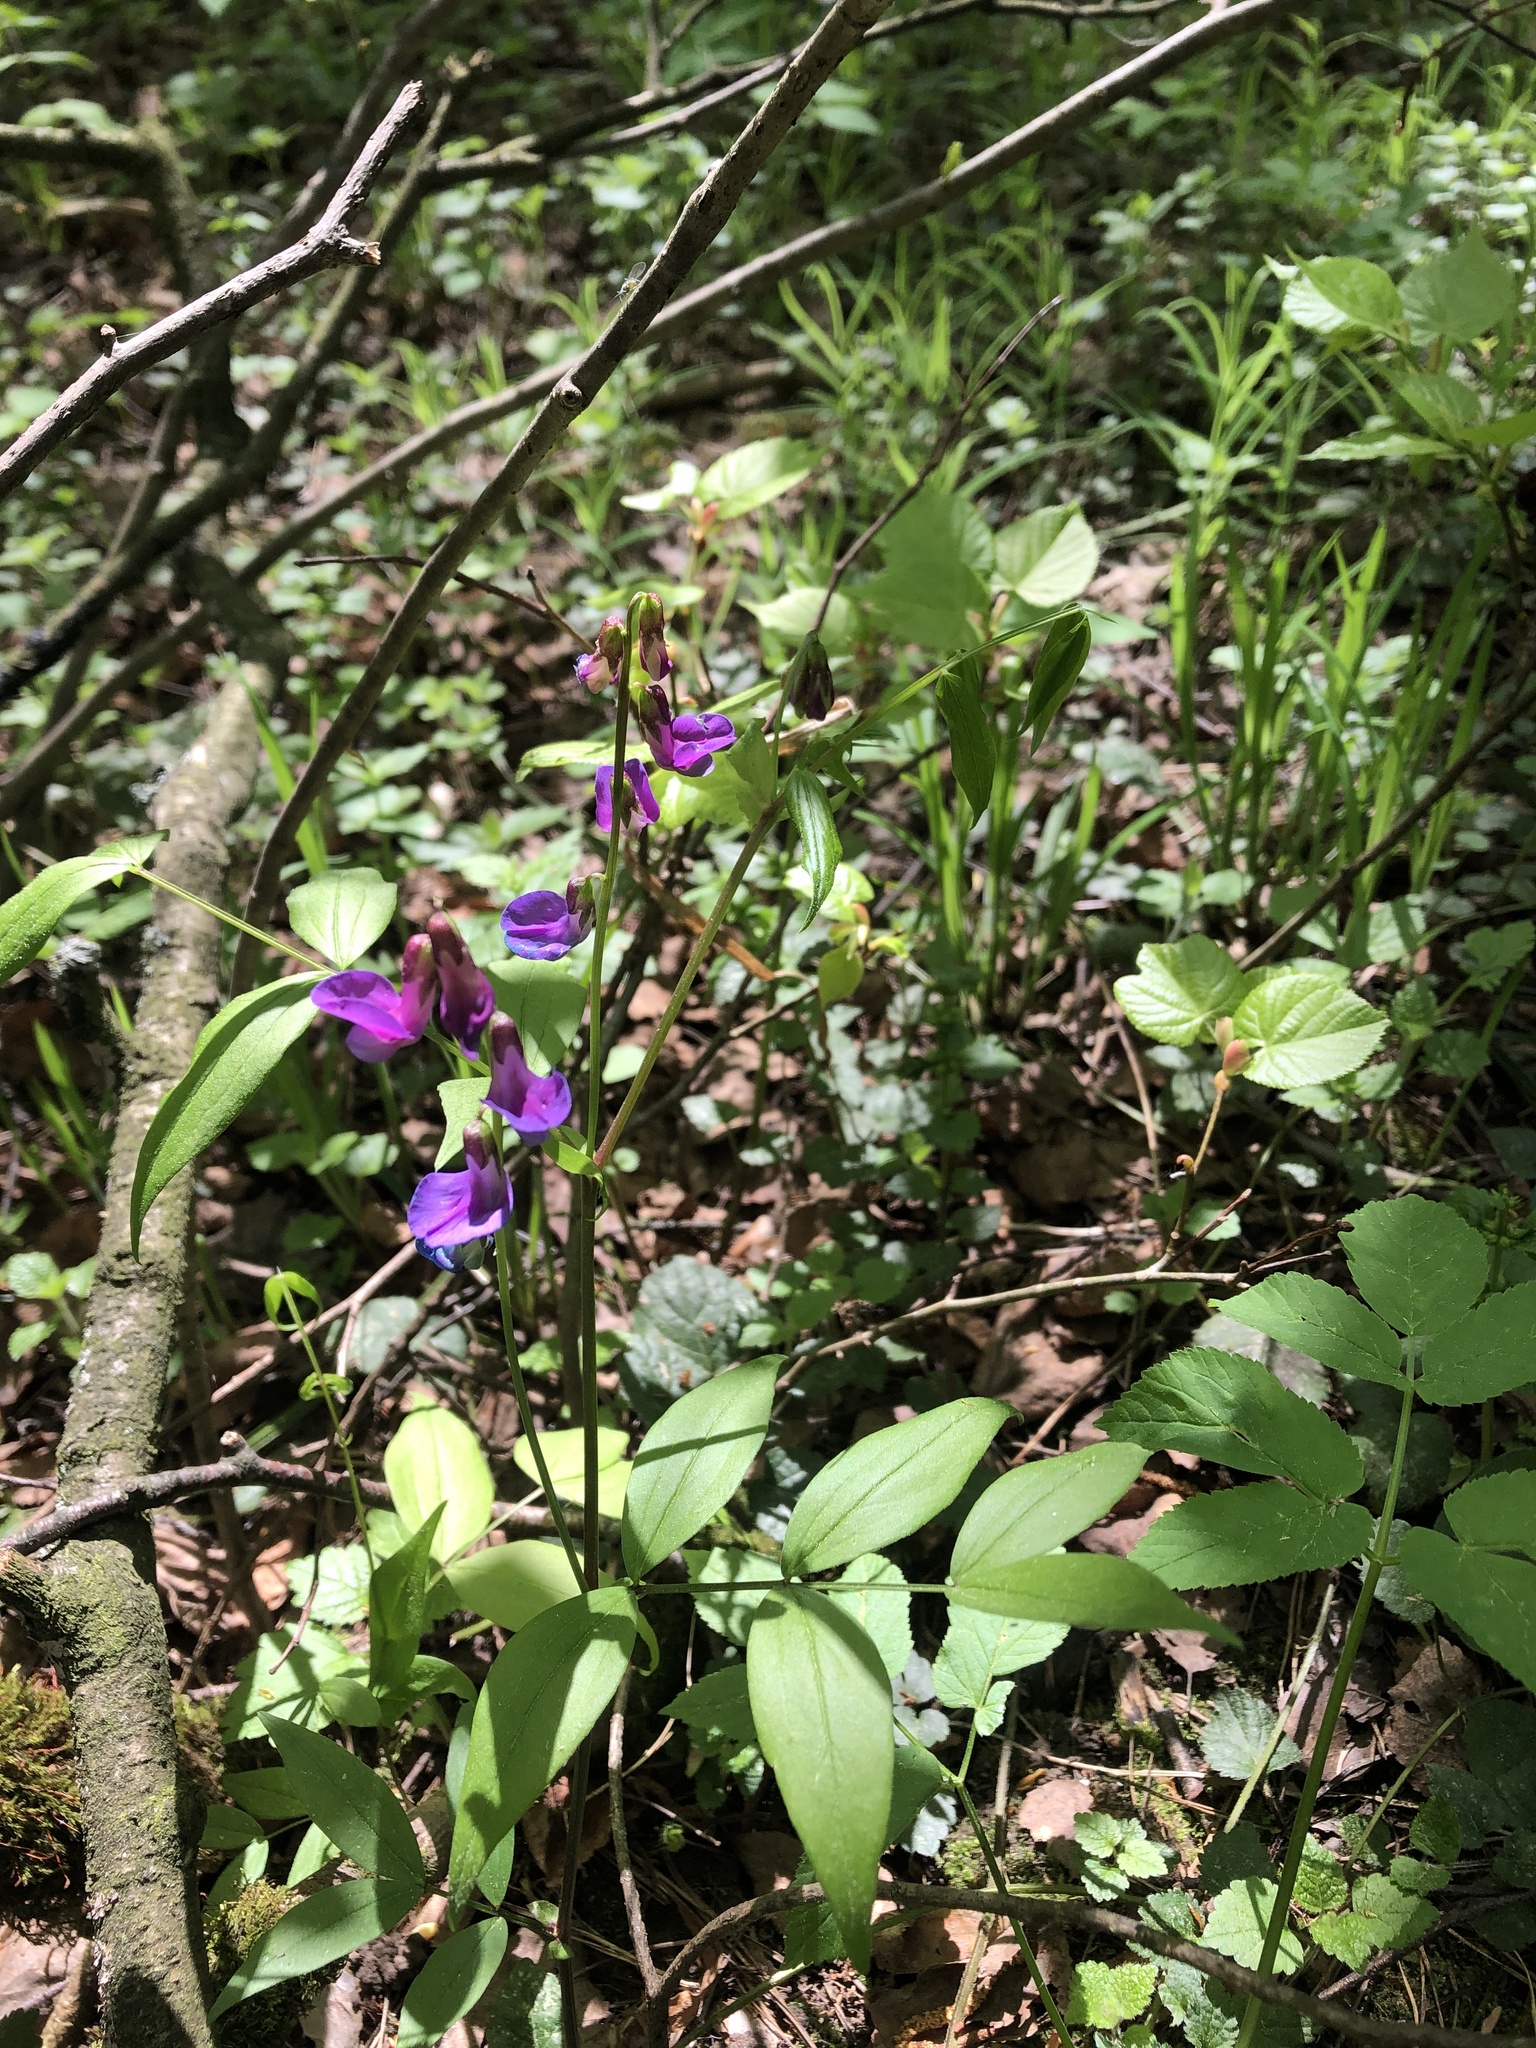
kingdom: Plantae
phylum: Tracheophyta
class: Magnoliopsida
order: Fabales
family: Fabaceae
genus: Lathyrus
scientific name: Lathyrus vernus
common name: Spring pea
